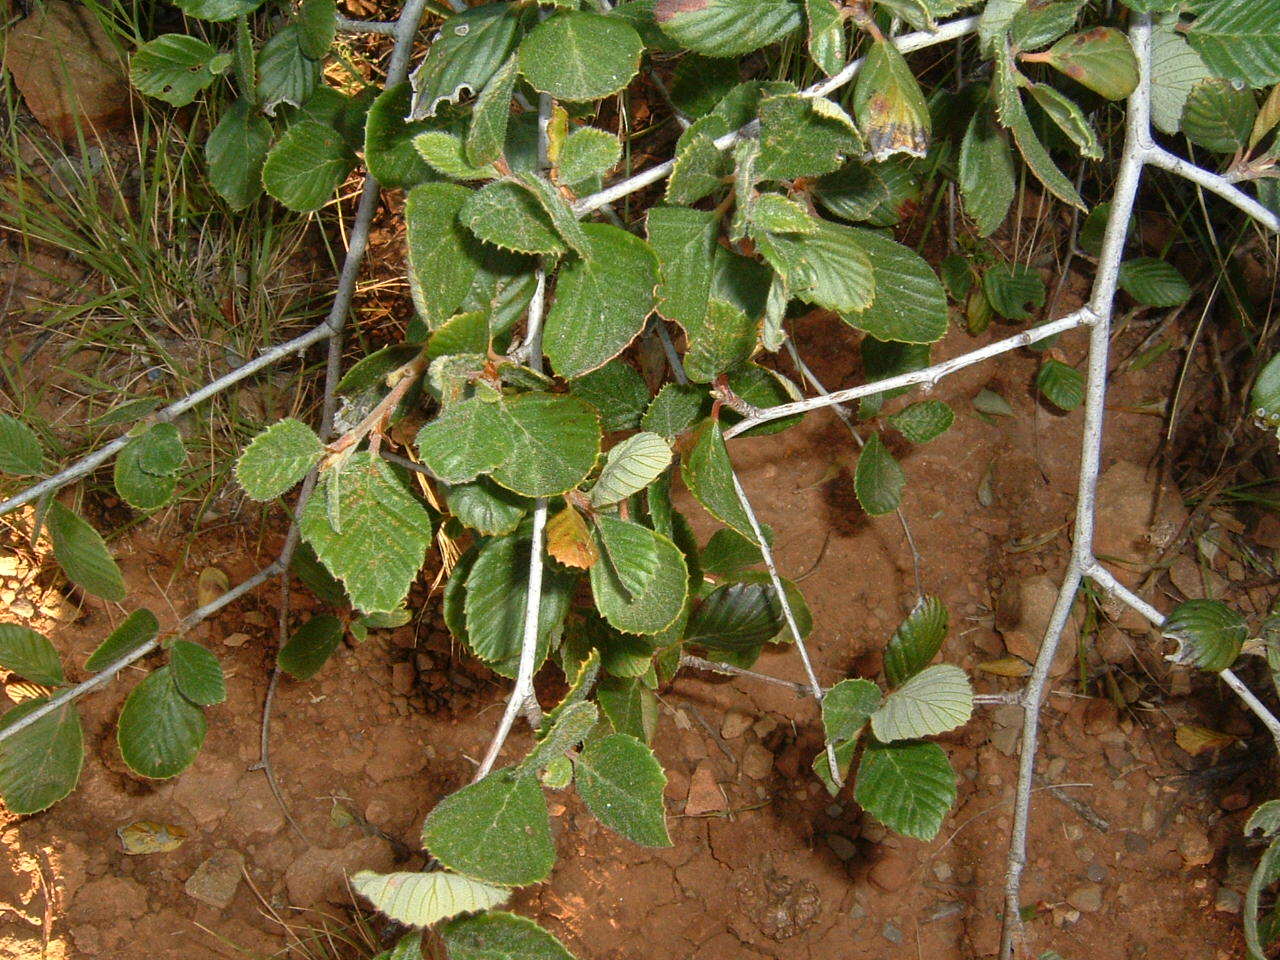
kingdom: Plantae
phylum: Tracheophyta
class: Magnoliopsida
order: Rosales
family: Rosaceae
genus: Cercocarpus
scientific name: Cercocarpus betuloides
